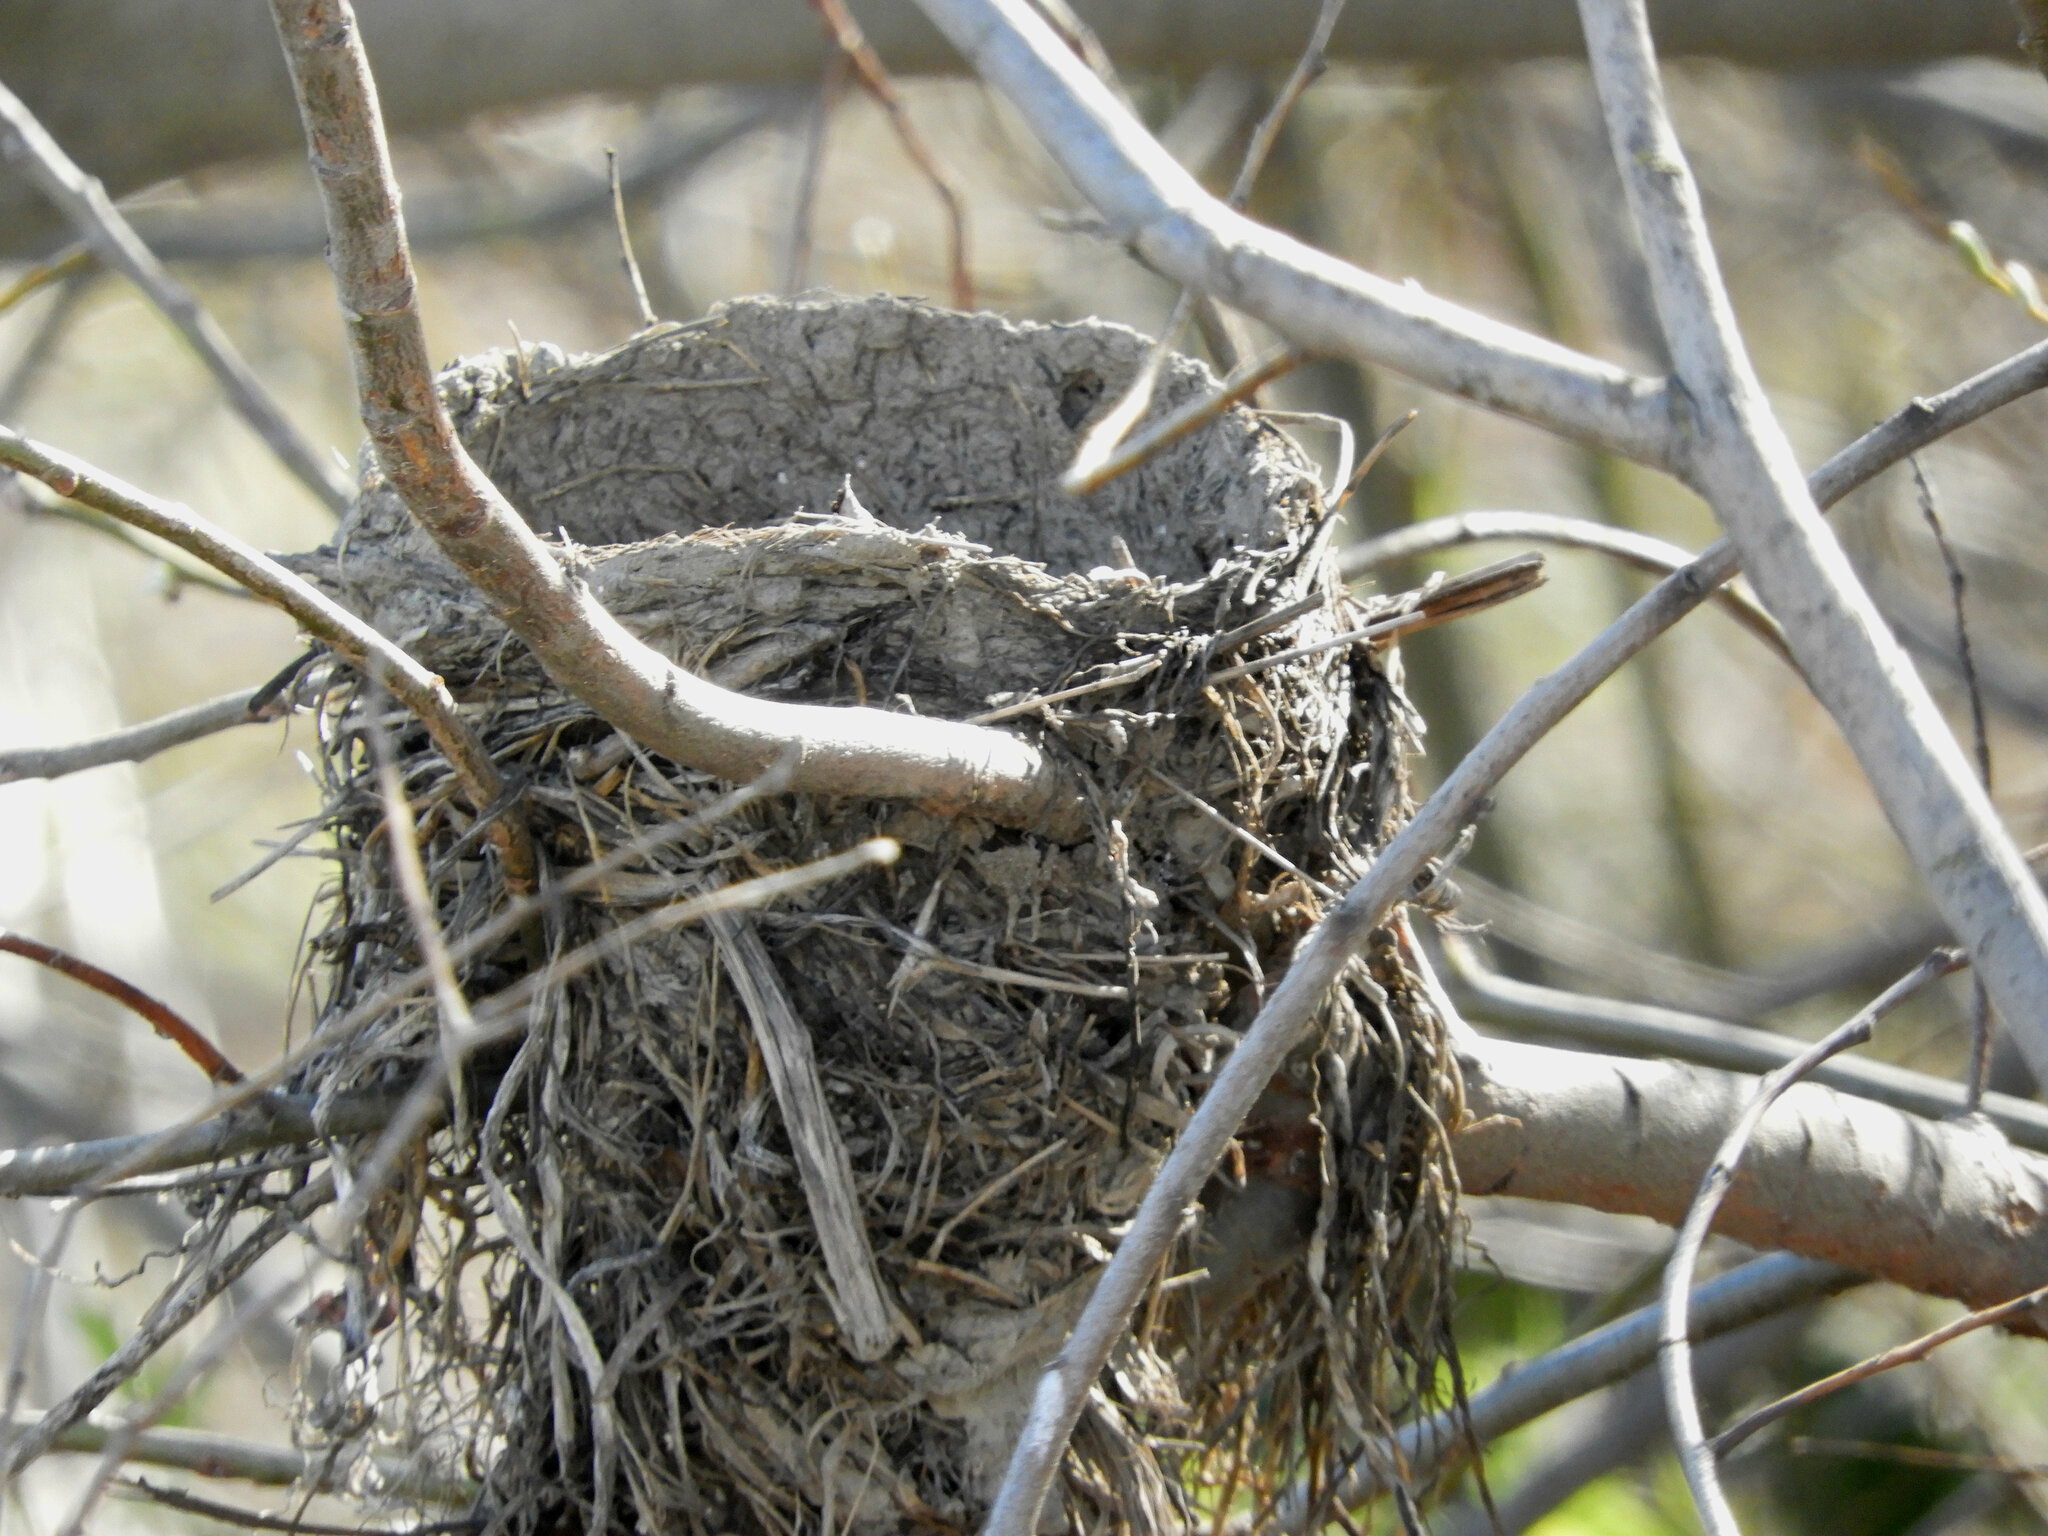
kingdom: Animalia
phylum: Chordata
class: Aves
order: Passeriformes
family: Turdidae
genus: Turdus
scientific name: Turdus migratorius
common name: American robin
